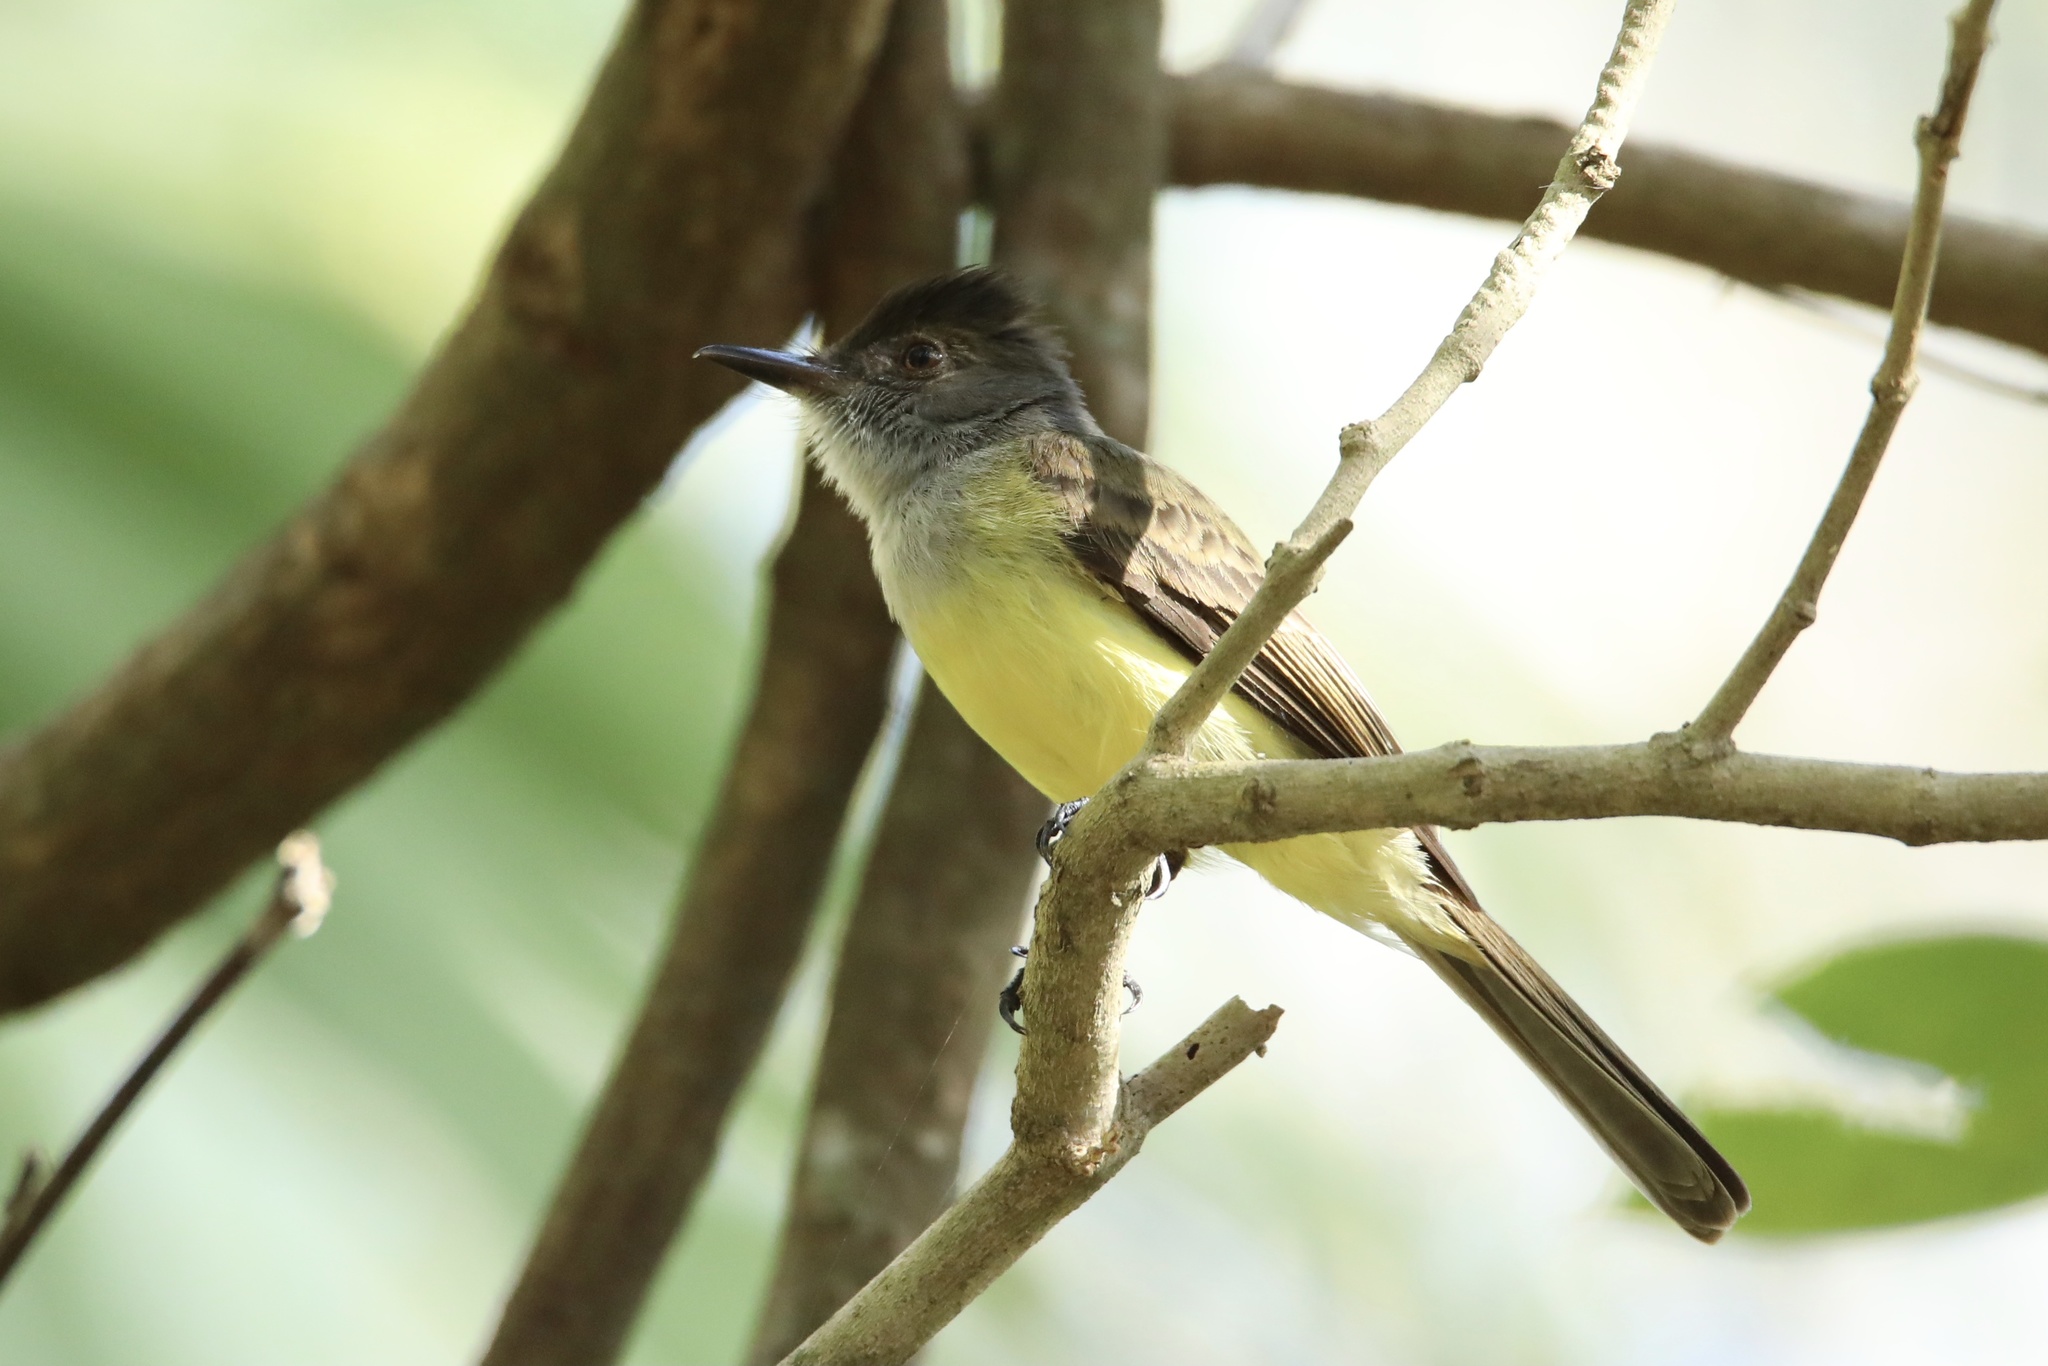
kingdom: Animalia
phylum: Chordata
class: Aves
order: Passeriformes
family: Tyrannidae
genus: Myiarchus
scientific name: Myiarchus tuberculifer
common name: Dusky-capped flycatcher
